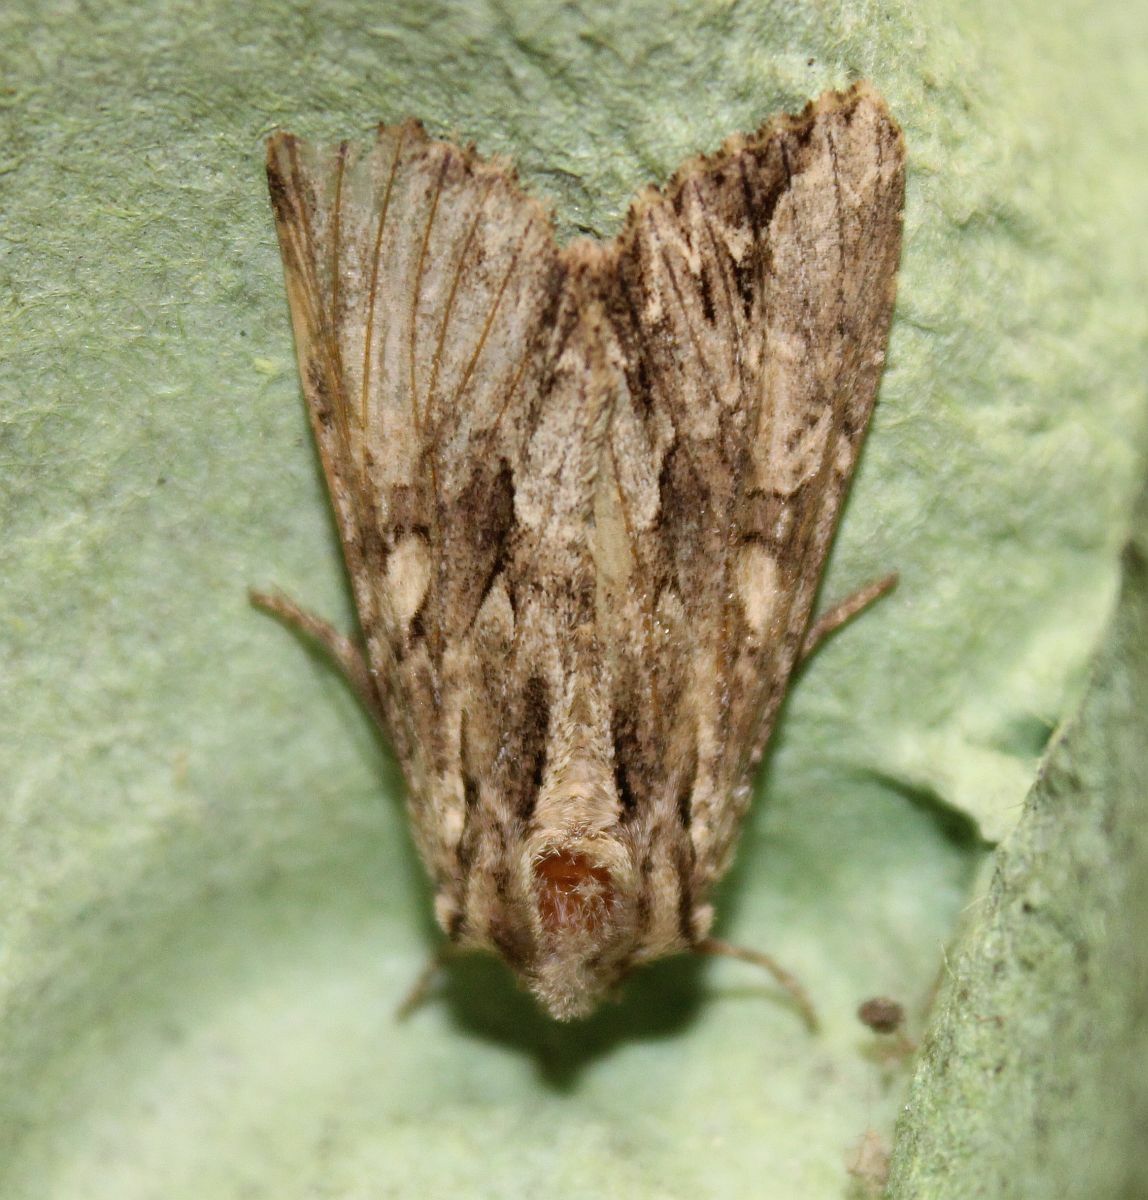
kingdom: Animalia
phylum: Arthropoda
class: Insecta
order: Lepidoptera
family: Noctuidae
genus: Apamea
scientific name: Apamea monoglypha
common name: Dark arches
